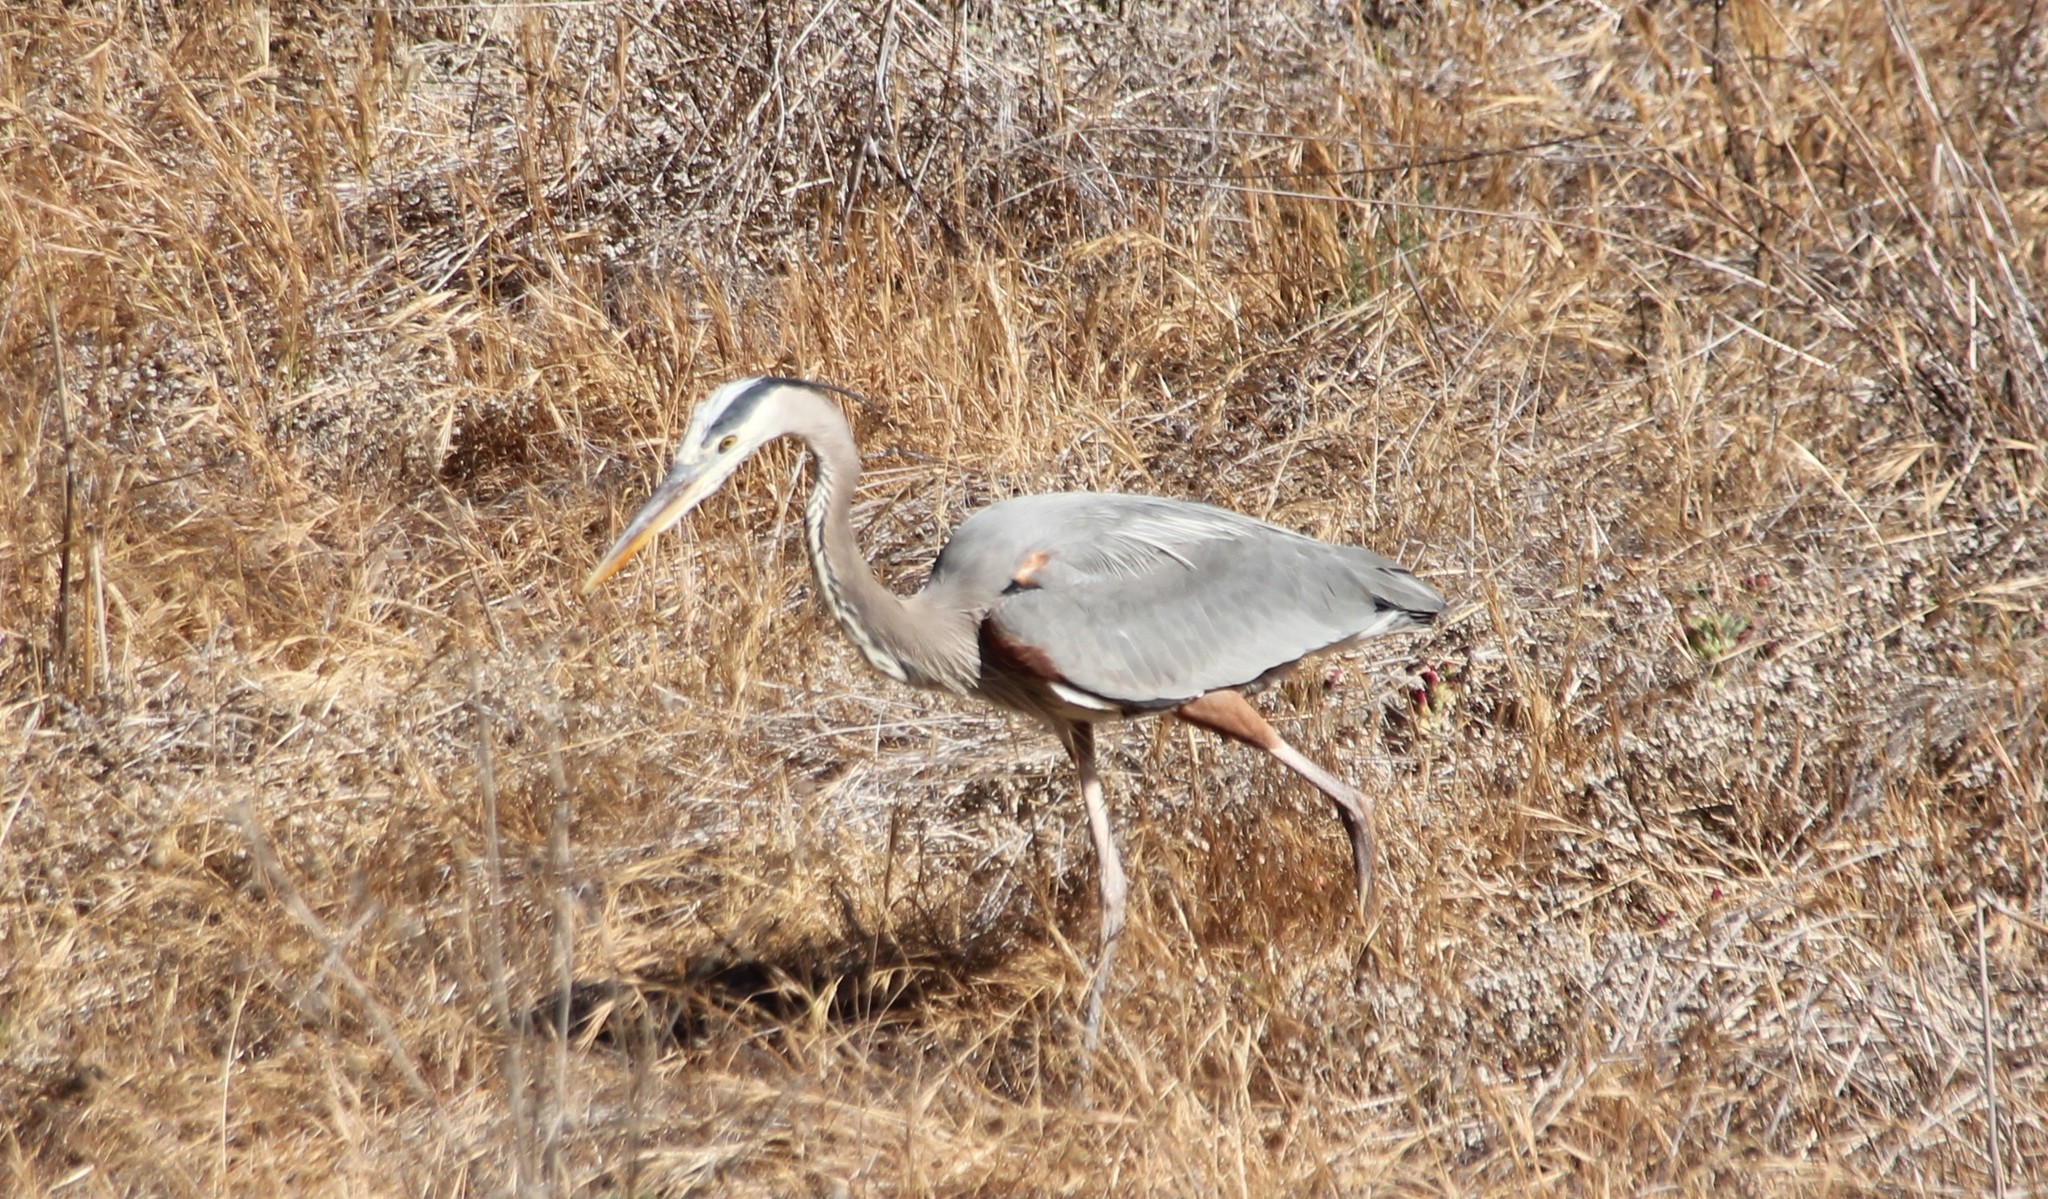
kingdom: Animalia
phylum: Chordata
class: Aves
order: Pelecaniformes
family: Ardeidae
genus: Ardea
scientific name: Ardea herodias
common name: Great blue heron
